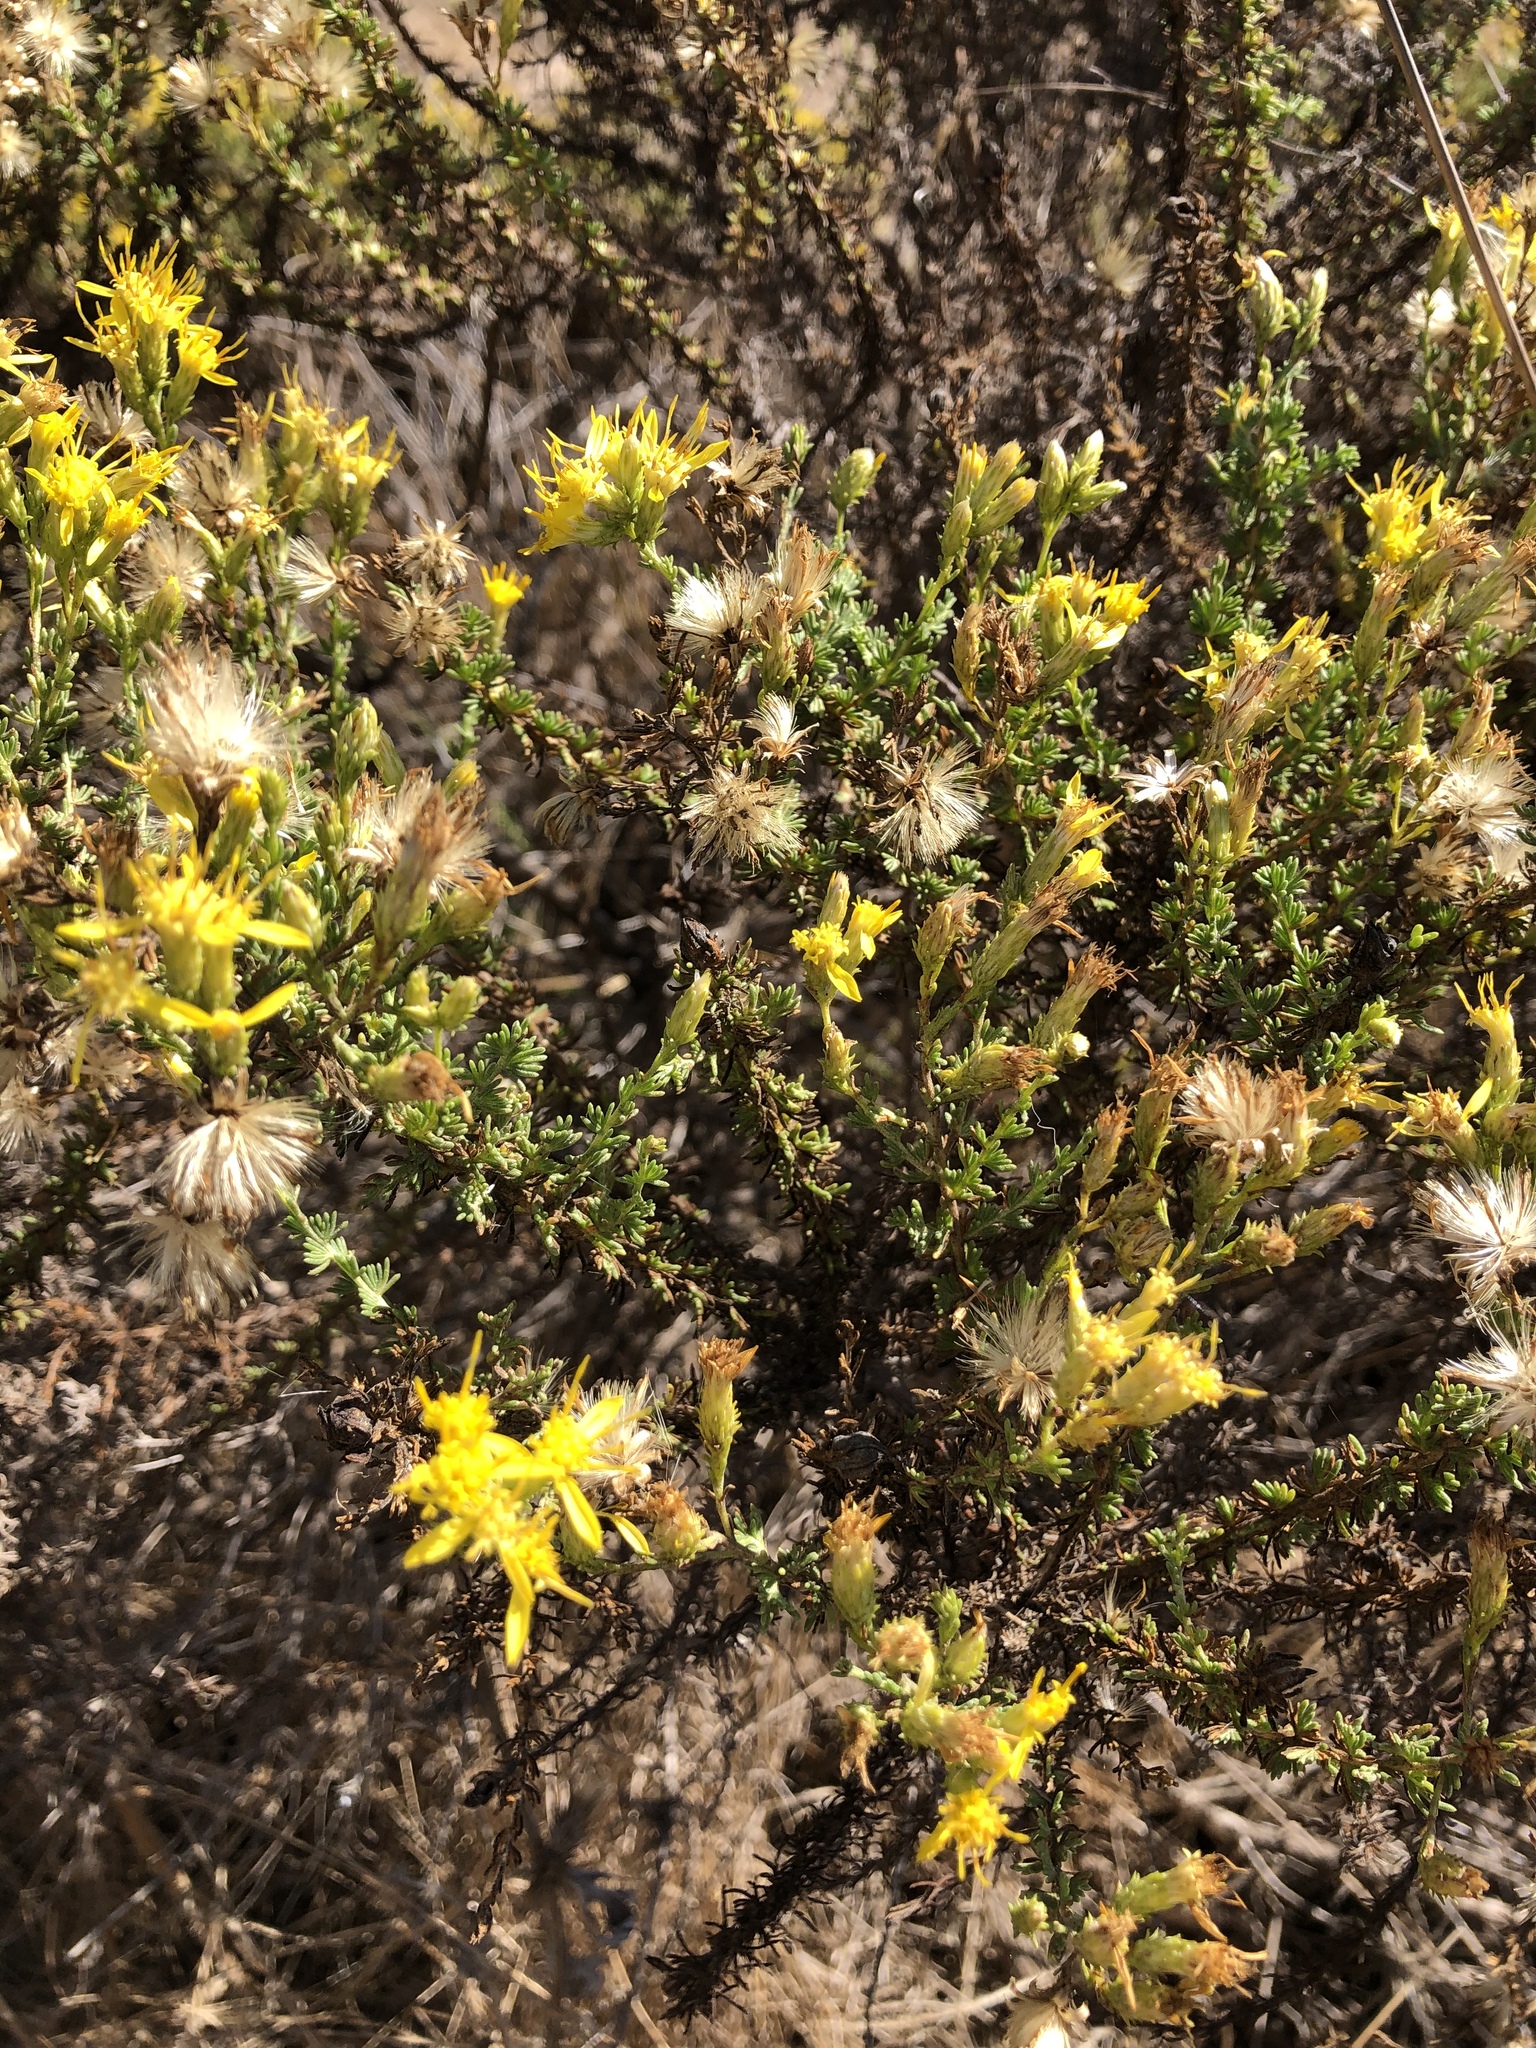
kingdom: Plantae
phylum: Tracheophyta
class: Magnoliopsida
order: Asterales
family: Asteraceae
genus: Ericameria
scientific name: Ericameria ericoides
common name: California goldenbush
